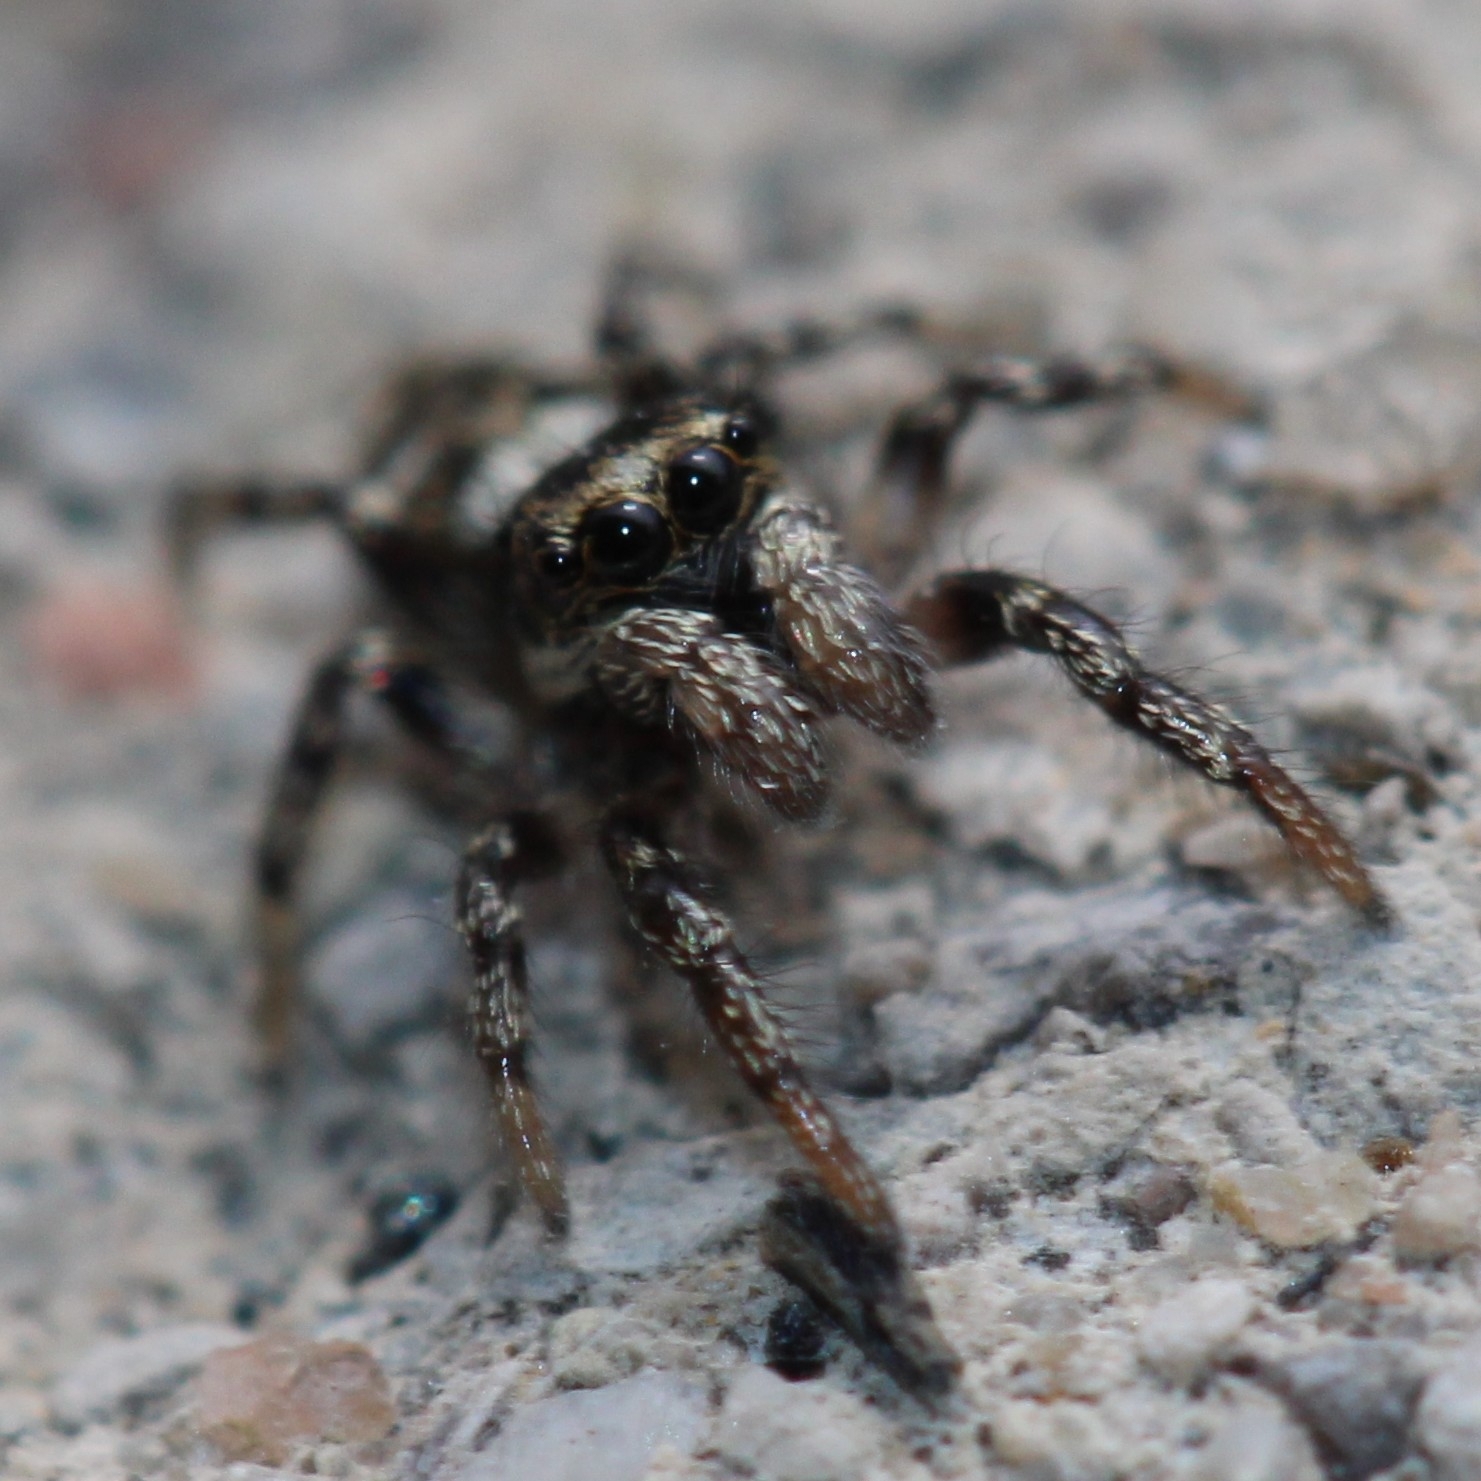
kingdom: Animalia
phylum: Arthropoda
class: Arachnida
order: Araneae
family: Salticidae
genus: Salticus
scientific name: Salticus scenicus
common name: Zebra jumper
